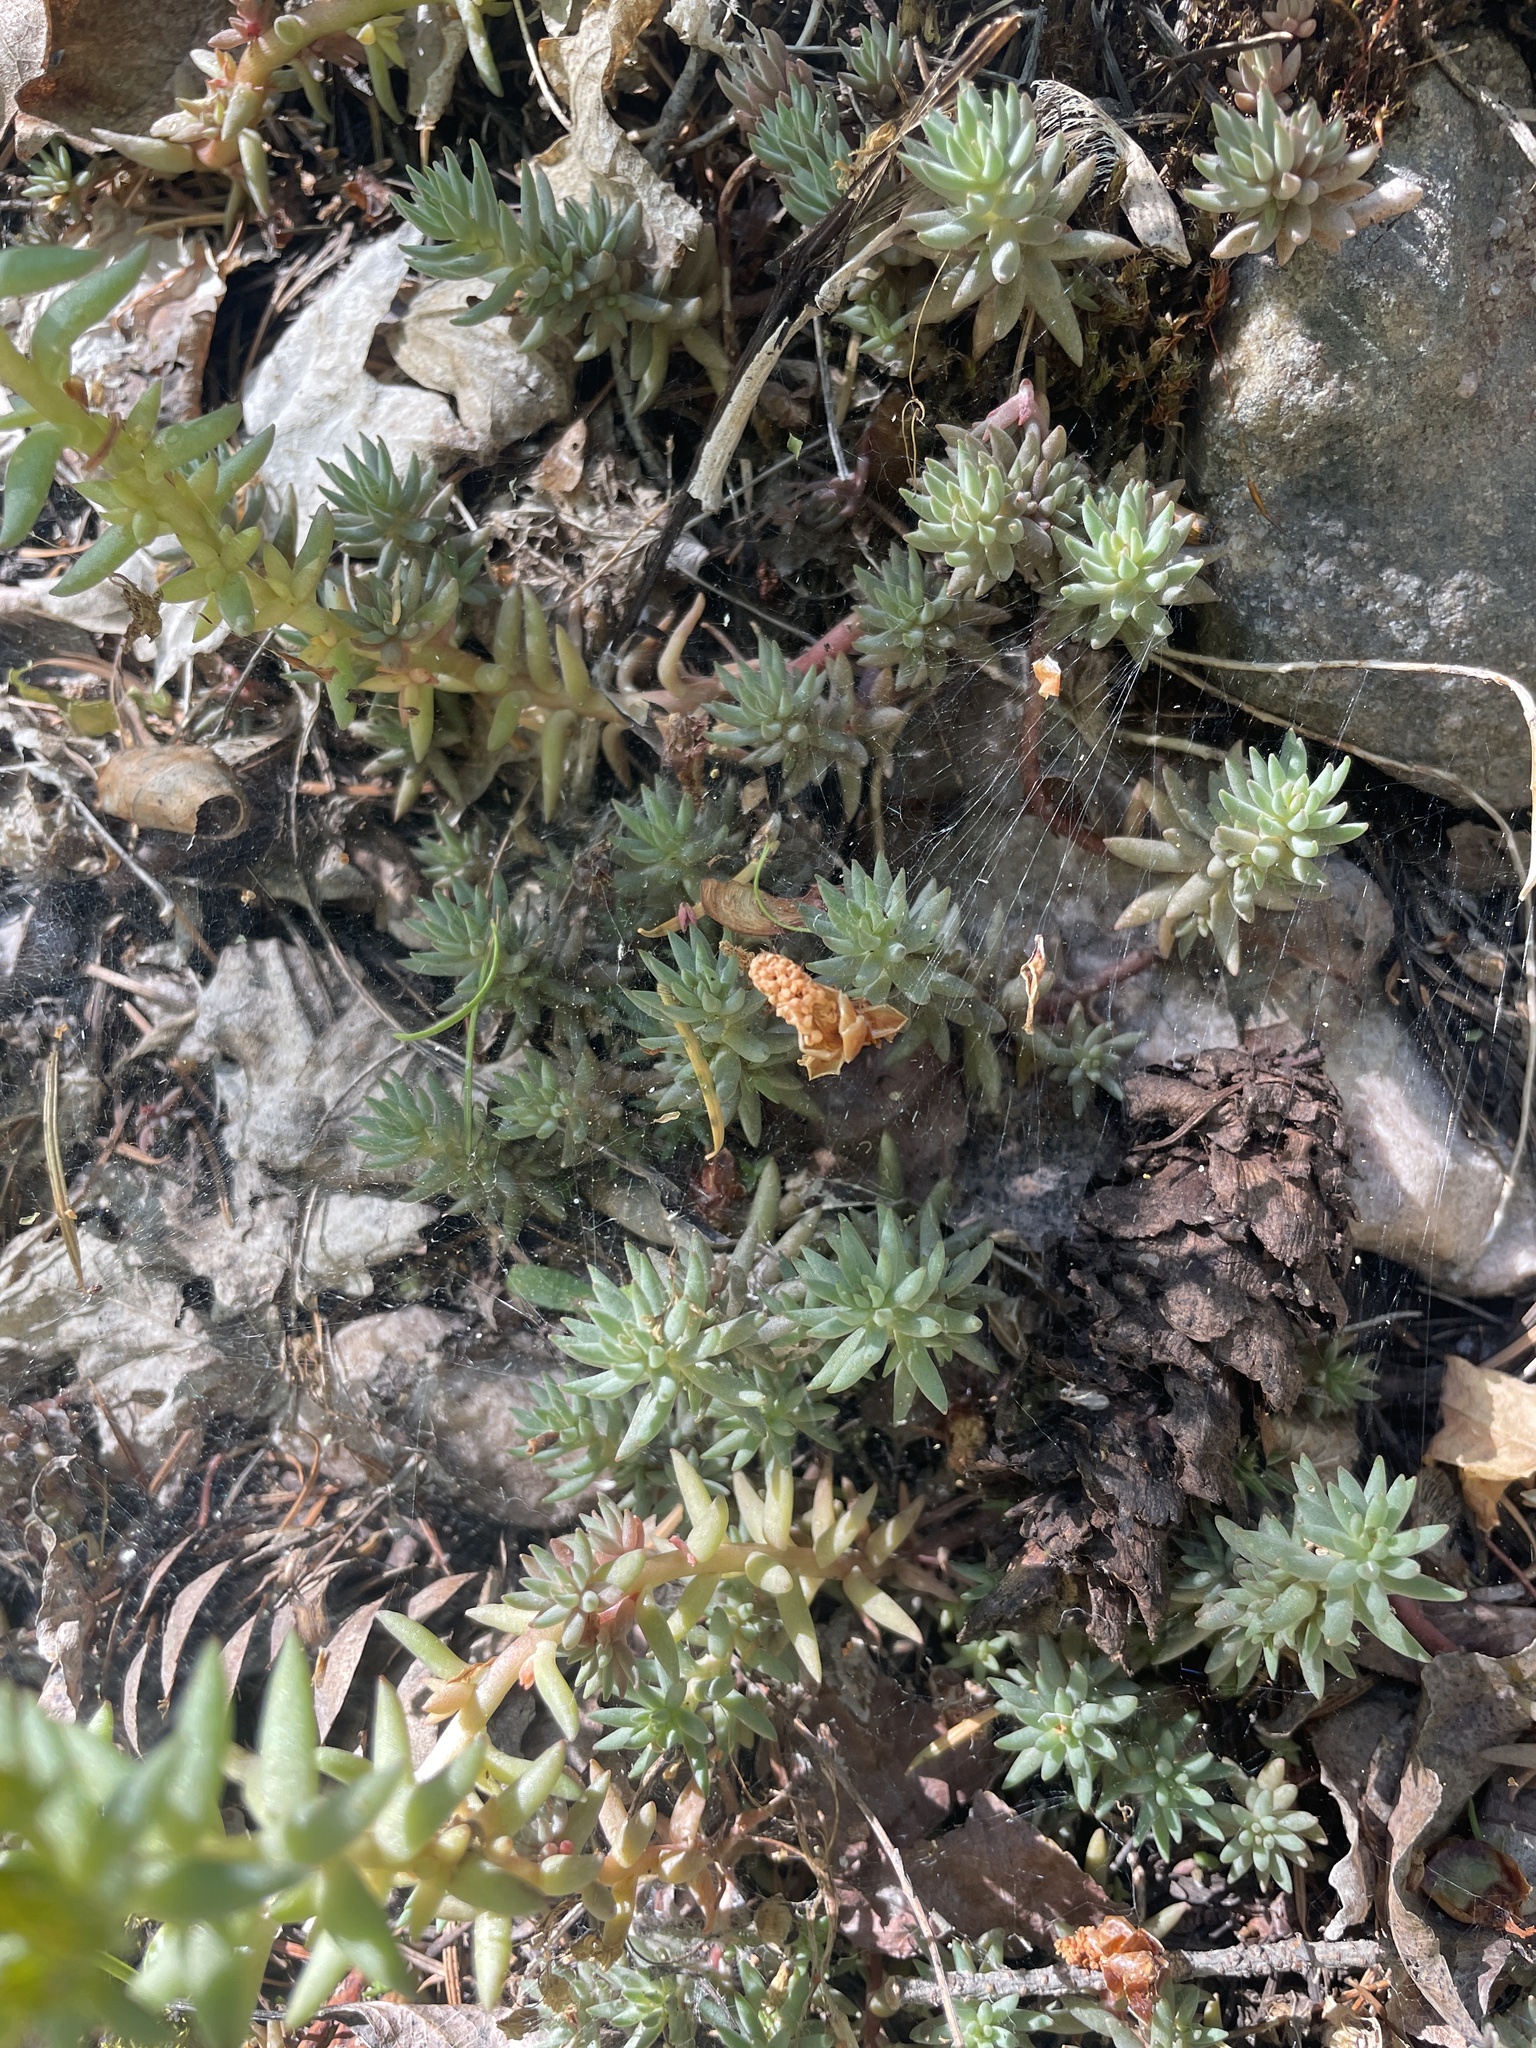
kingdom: Plantae
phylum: Tracheophyta
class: Magnoliopsida
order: Saxifragales
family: Crassulaceae
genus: Sedum
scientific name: Sedum lanceolatum
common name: Common stonecrop
